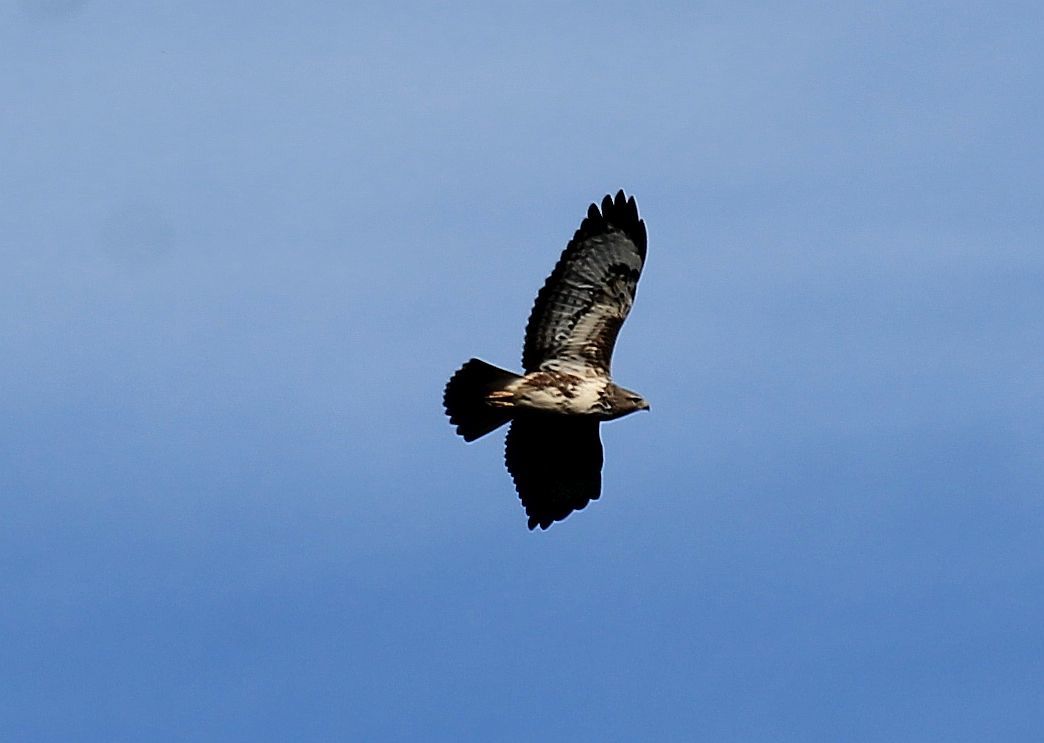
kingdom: Animalia
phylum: Chordata
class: Aves
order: Accipitriformes
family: Accipitridae
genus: Buteo
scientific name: Buteo buteo
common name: Common buzzard
